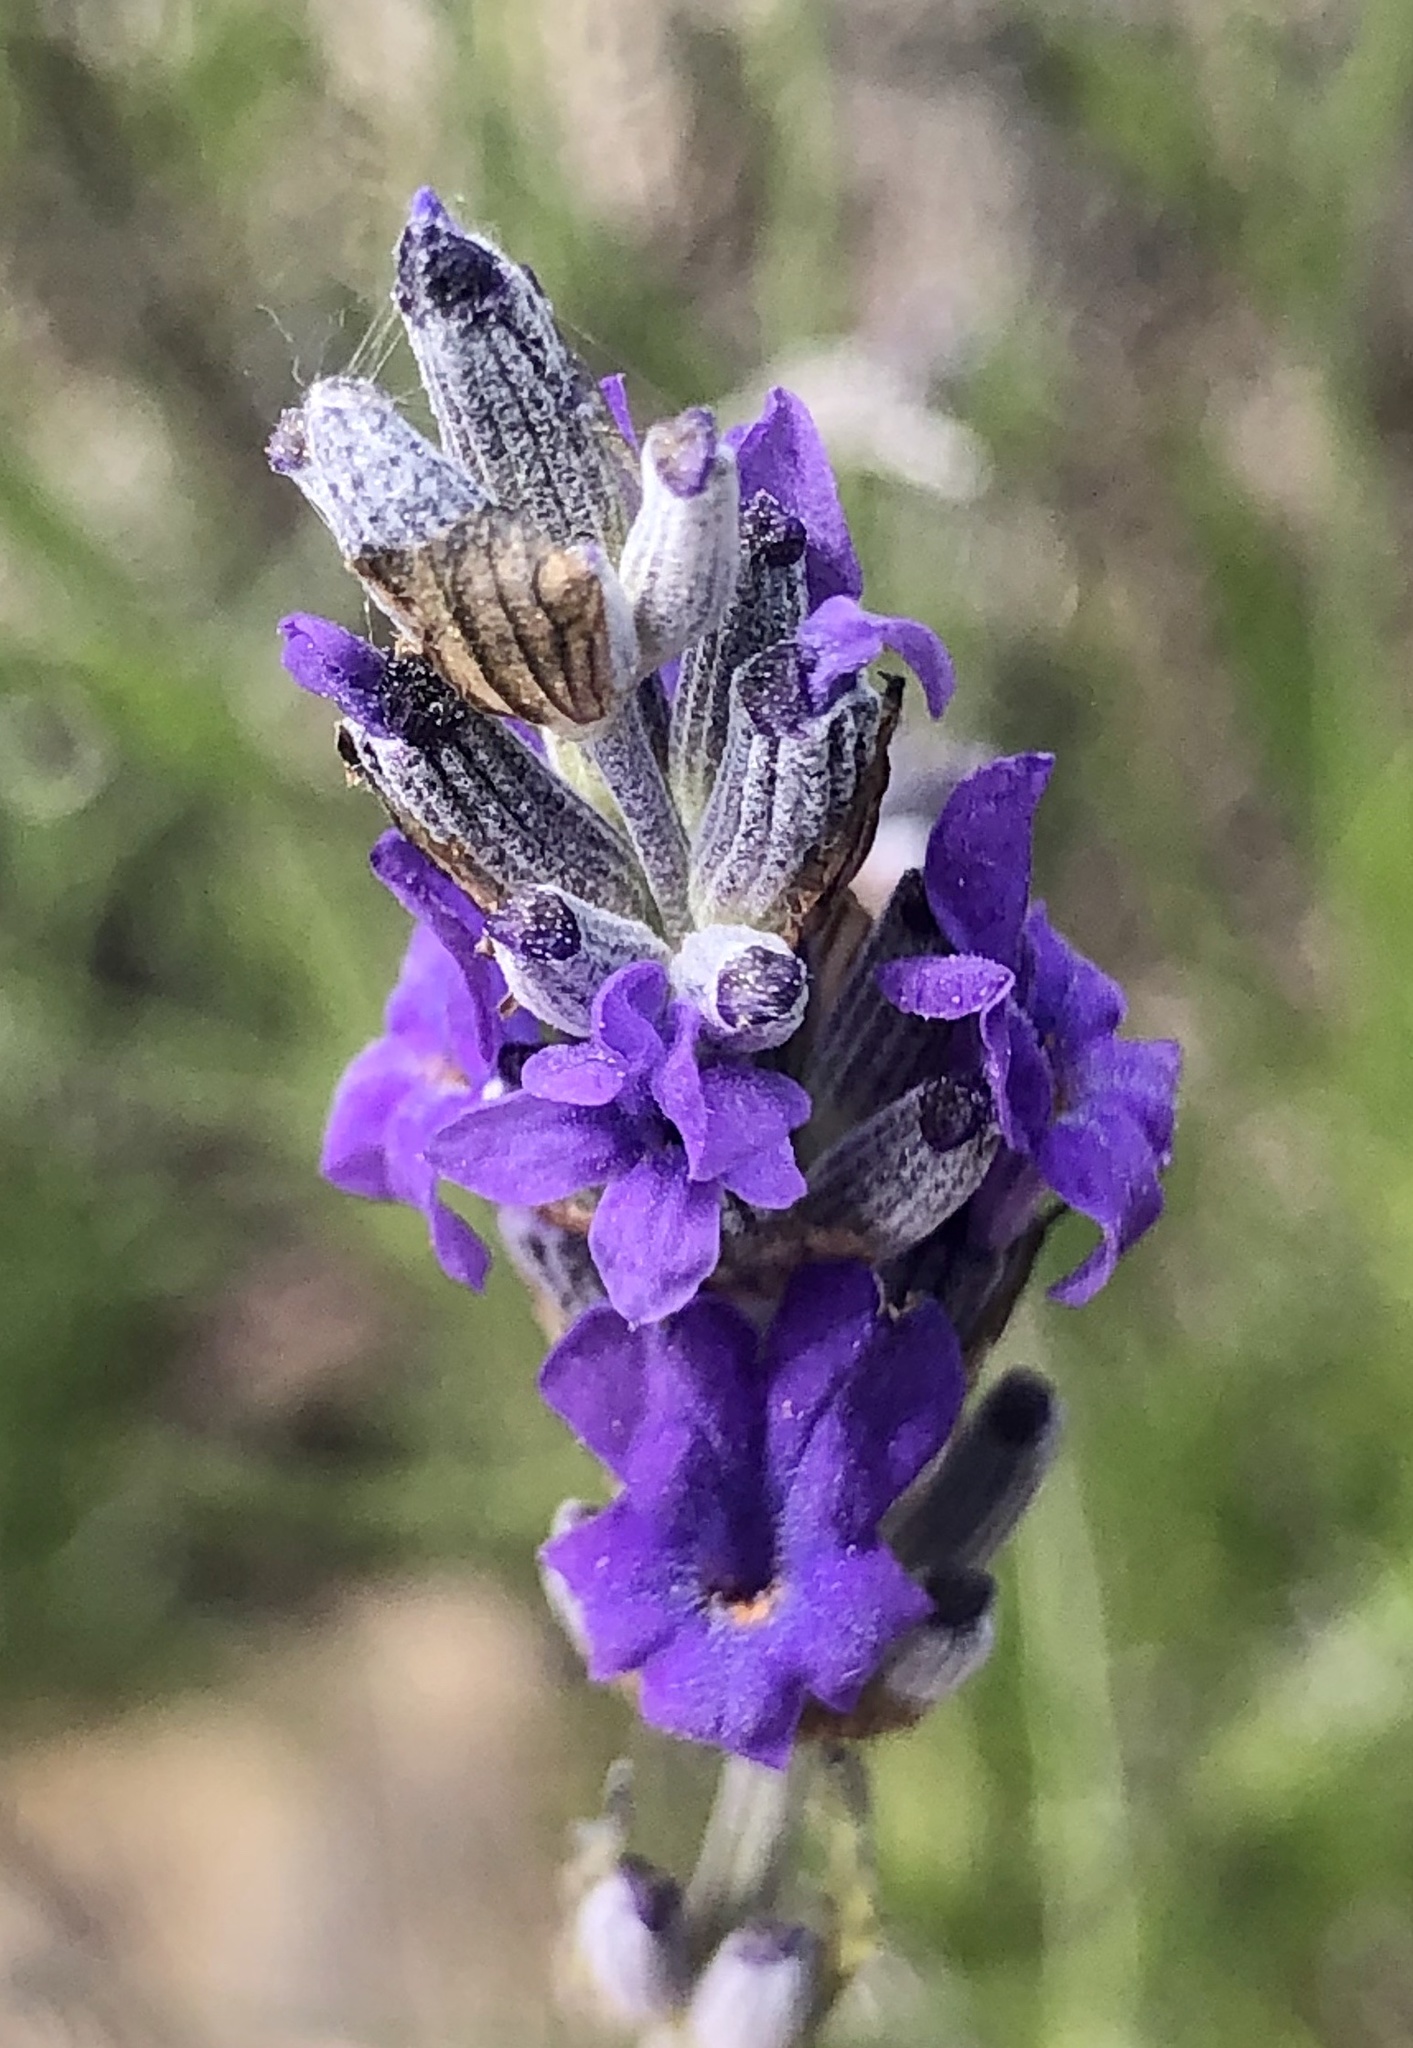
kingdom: Plantae
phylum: Tracheophyta
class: Magnoliopsida
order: Lamiales
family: Lamiaceae
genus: Lavandula
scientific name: Lavandula angustifolia
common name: Garden lavender
